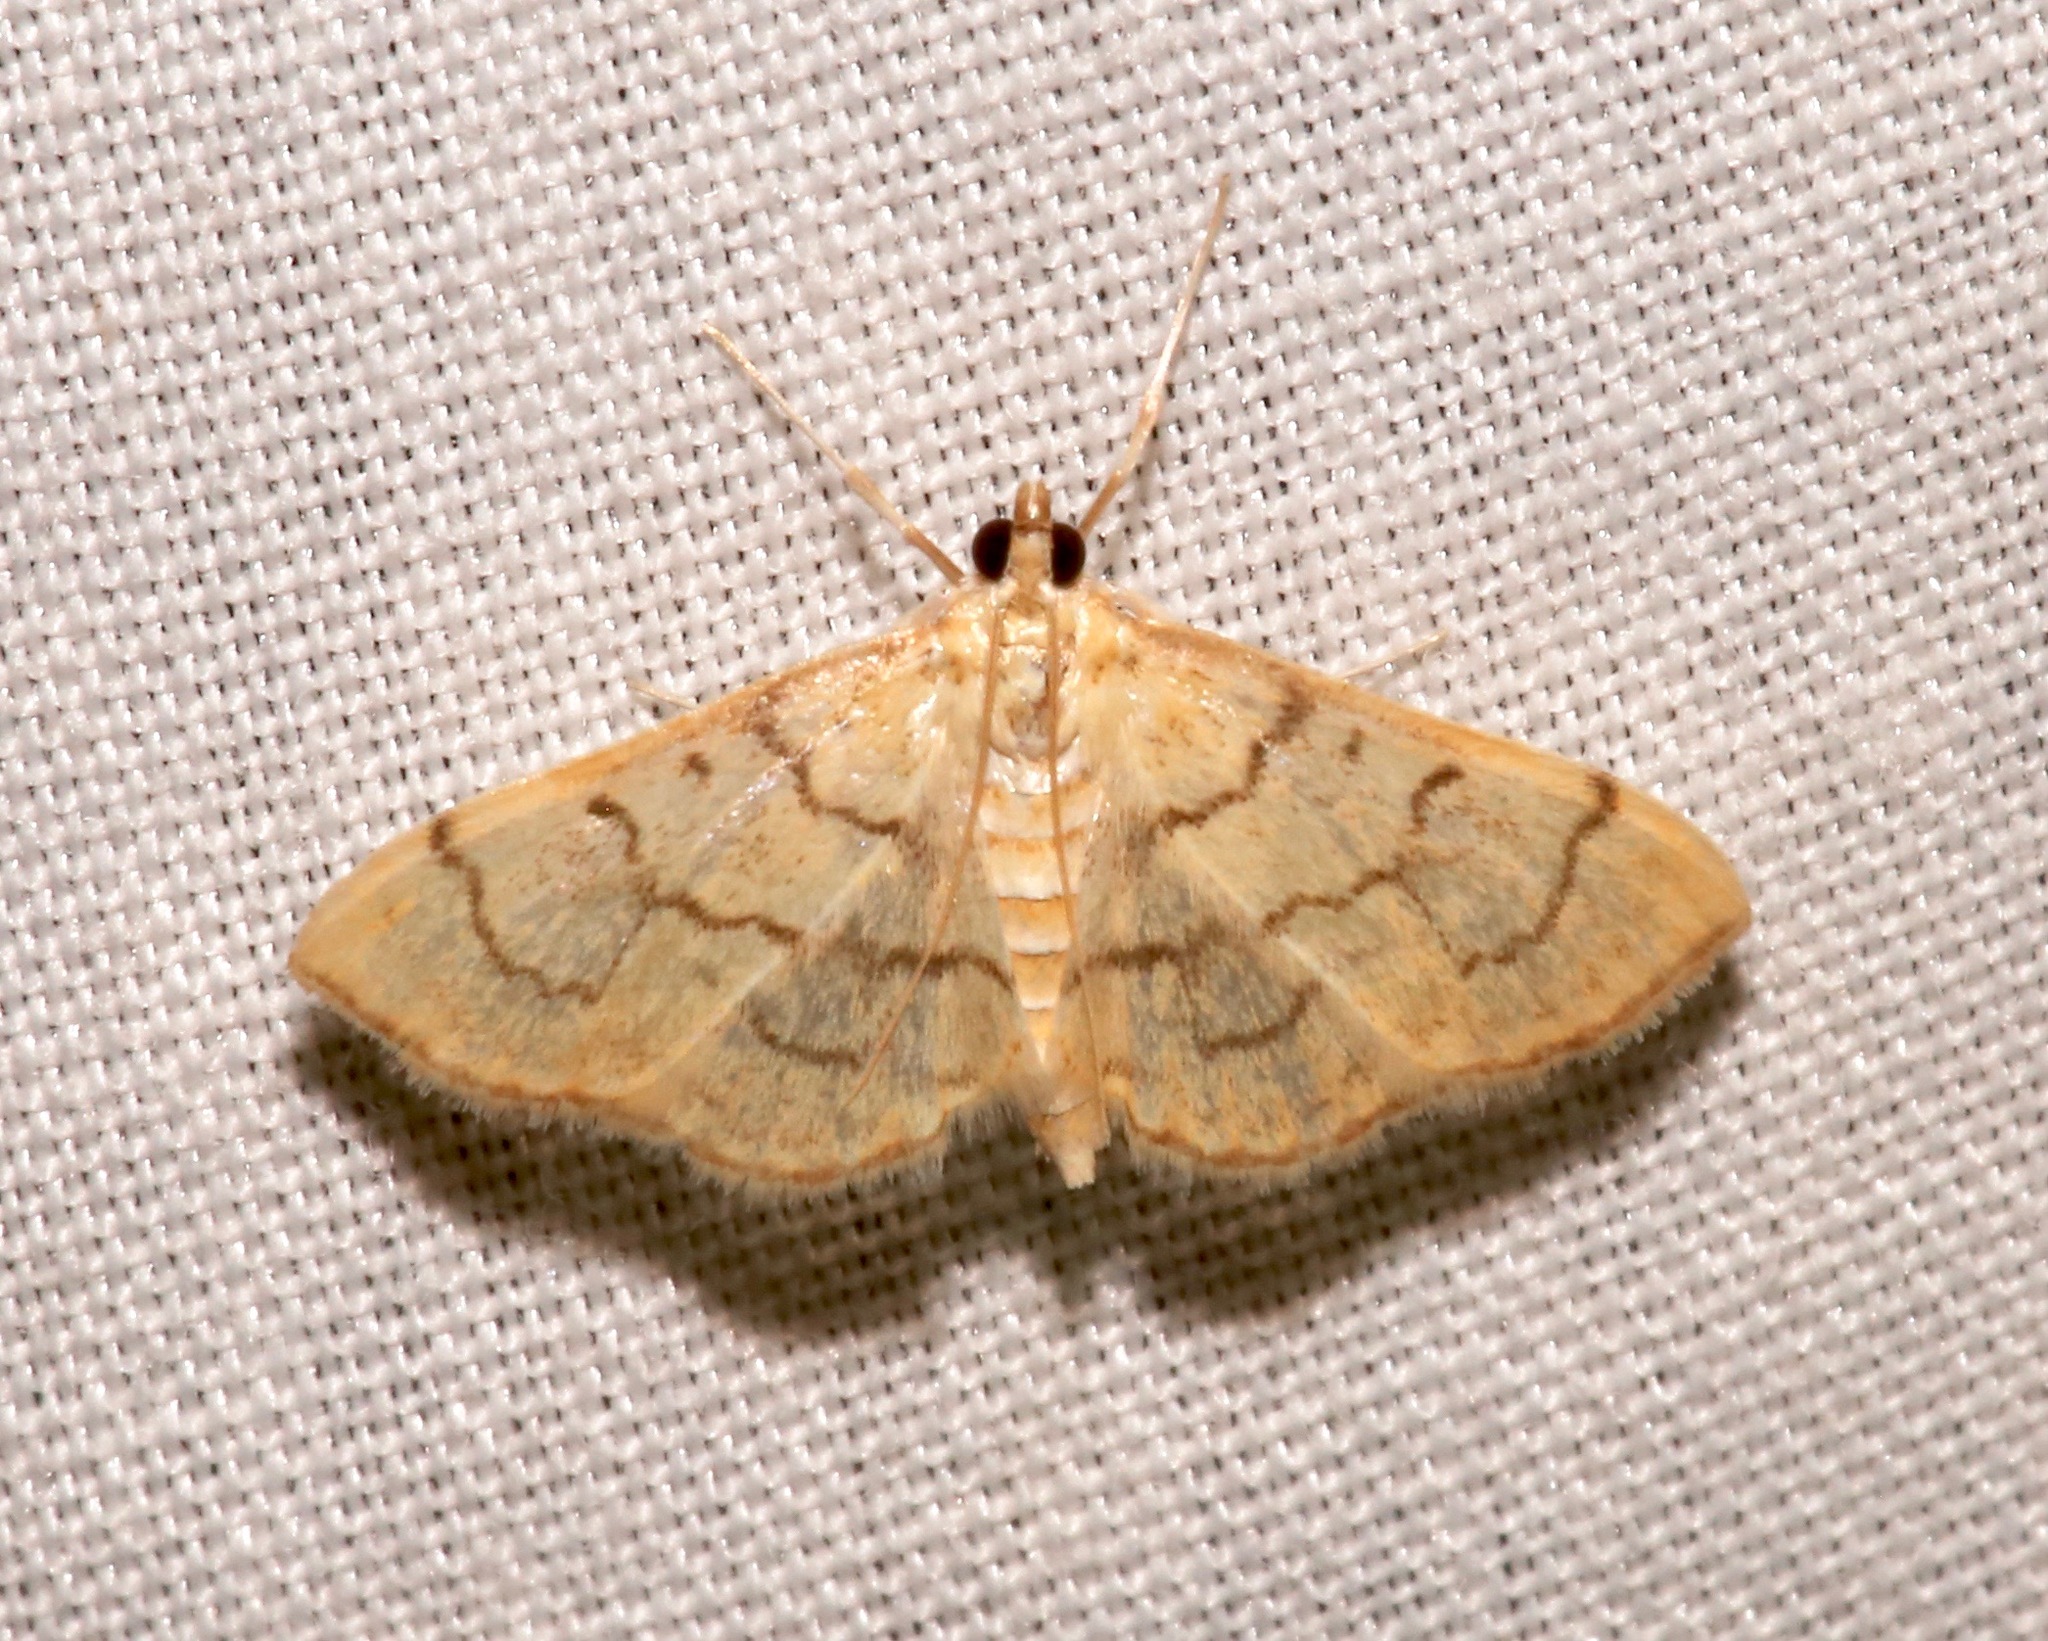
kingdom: Animalia
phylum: Arthropoda
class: Insecta
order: Lepidoptera
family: Crambidae
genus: Anania
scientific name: Anania labeculalis
